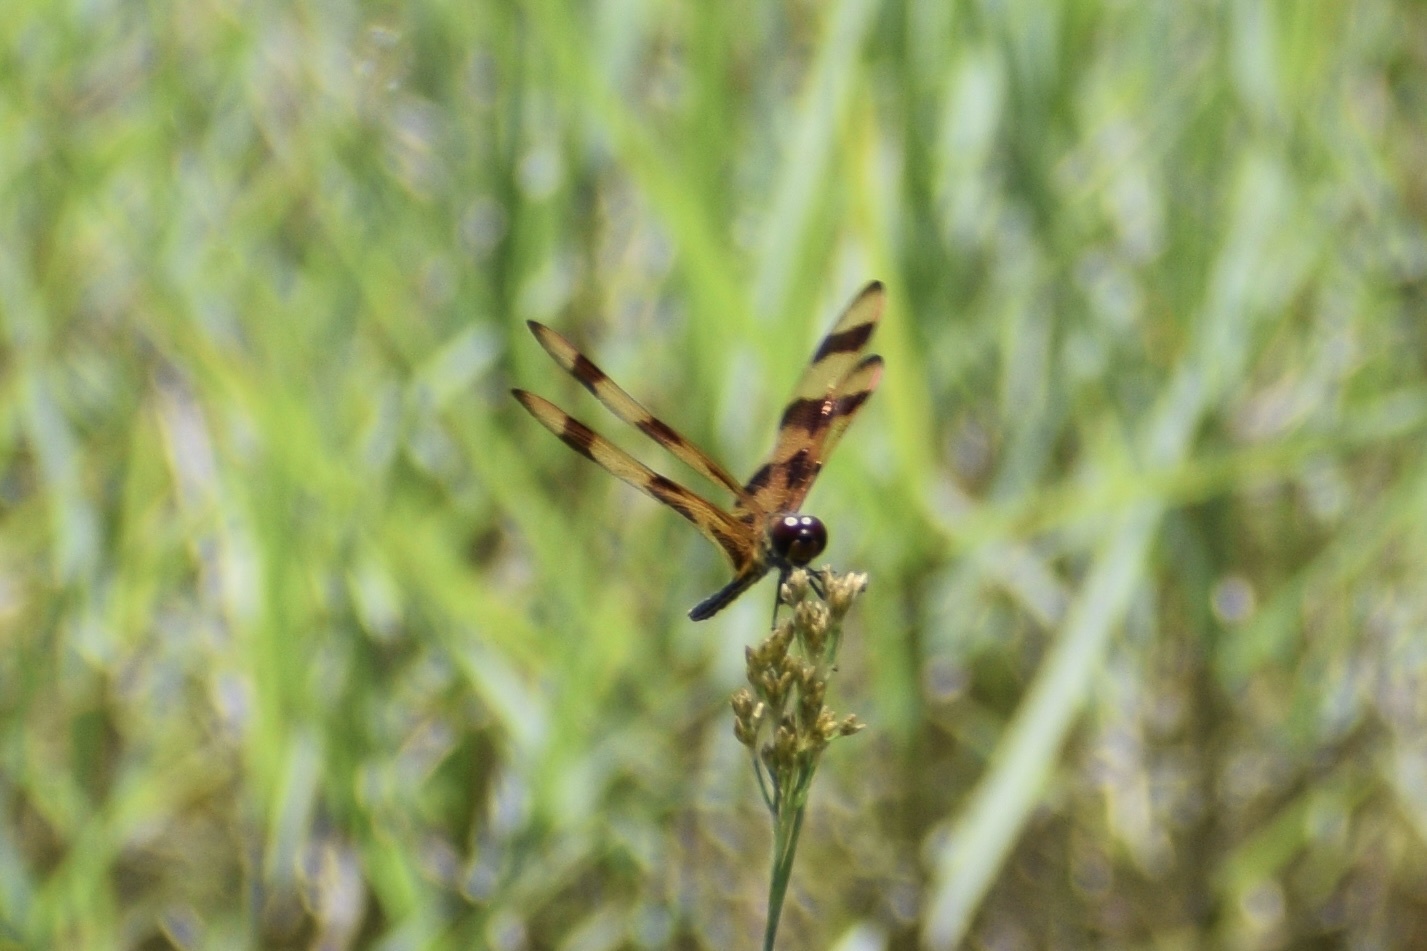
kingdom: Animalia
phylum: Arthropoda
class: Insecta
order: Odonata
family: Libellulidae
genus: Celithemis
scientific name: Celithemis eponina
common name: Halloween pennant
